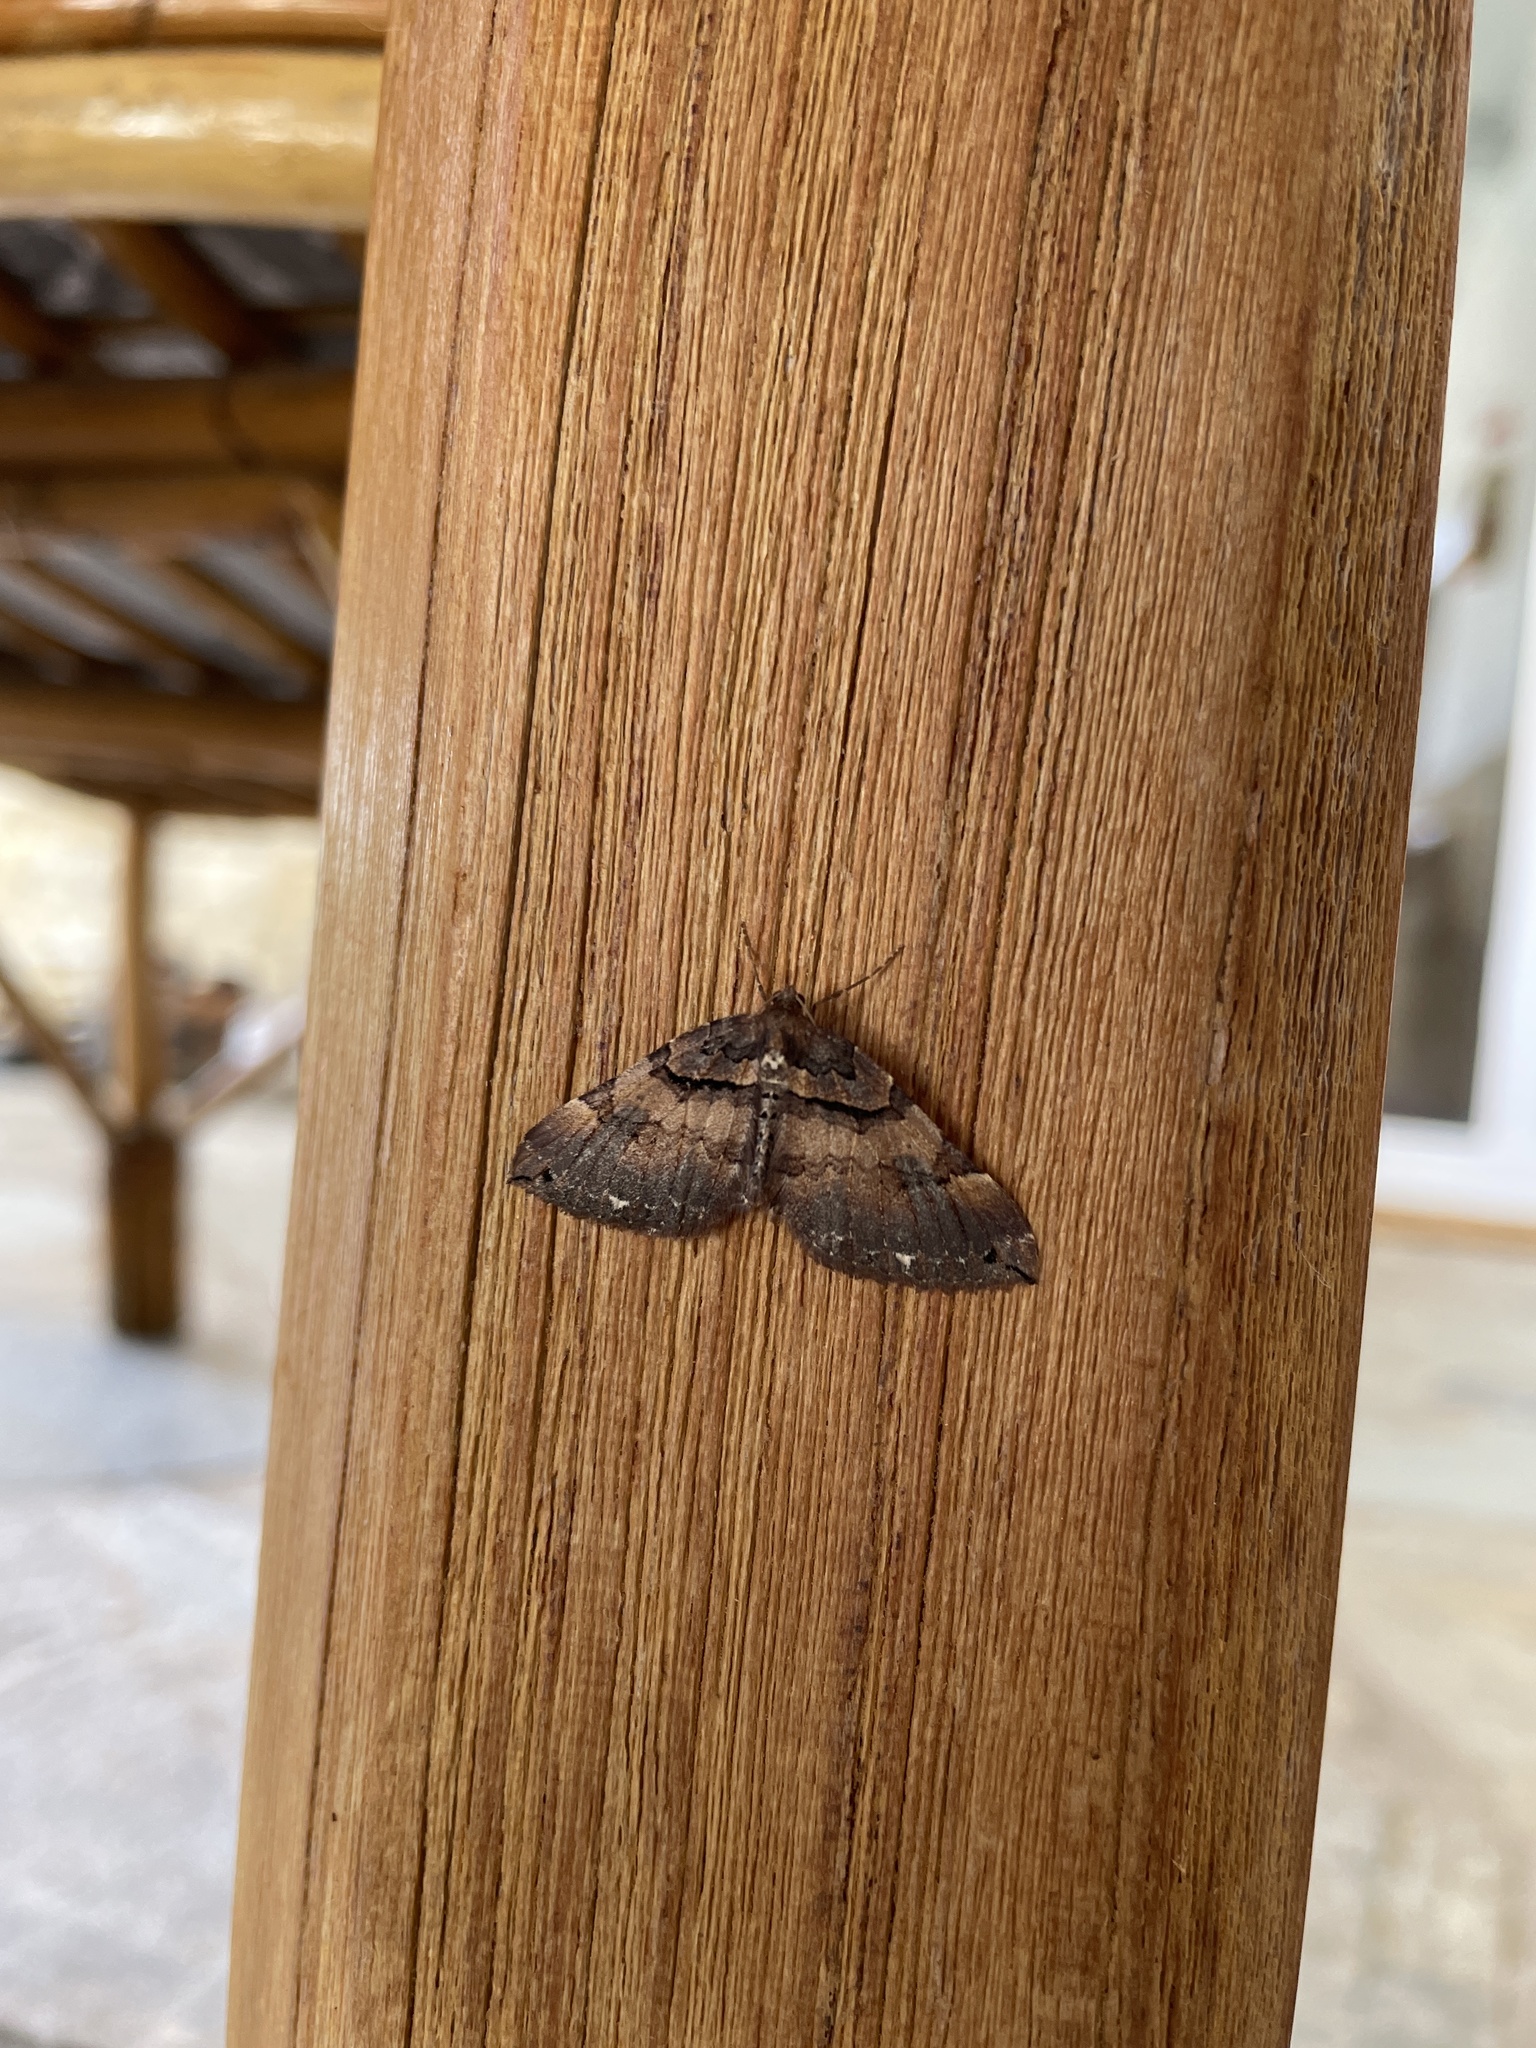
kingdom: Animalia
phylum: Arthropoda
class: Insecta
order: Lepidoptera
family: Geometridae
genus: Anticlea
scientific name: Anticlea badiata
